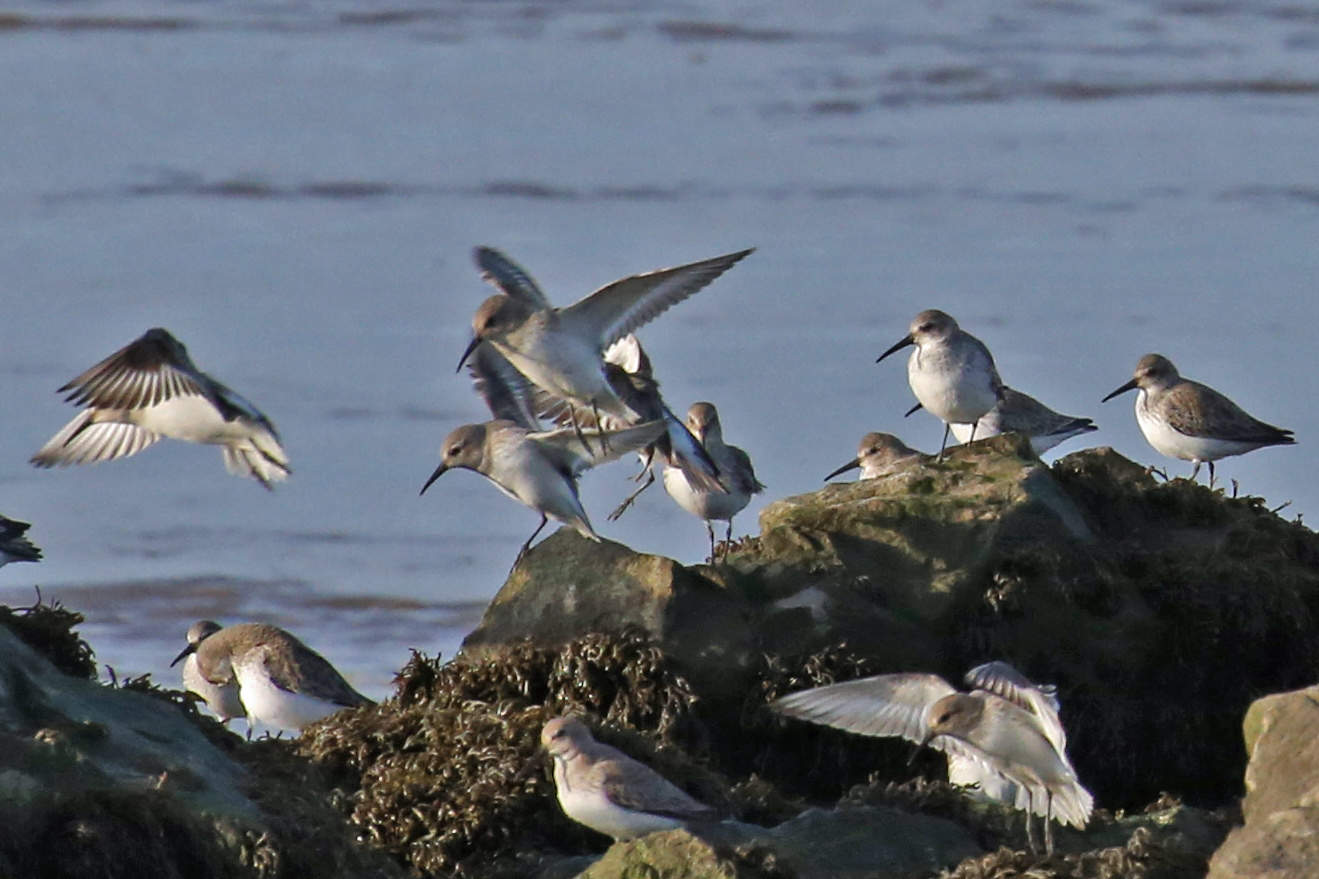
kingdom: Animalia
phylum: Chordata
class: Aves
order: Charadriiformes
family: Scolopacidae
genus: Calidris
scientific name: Calidris alpina
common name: Dunlin
